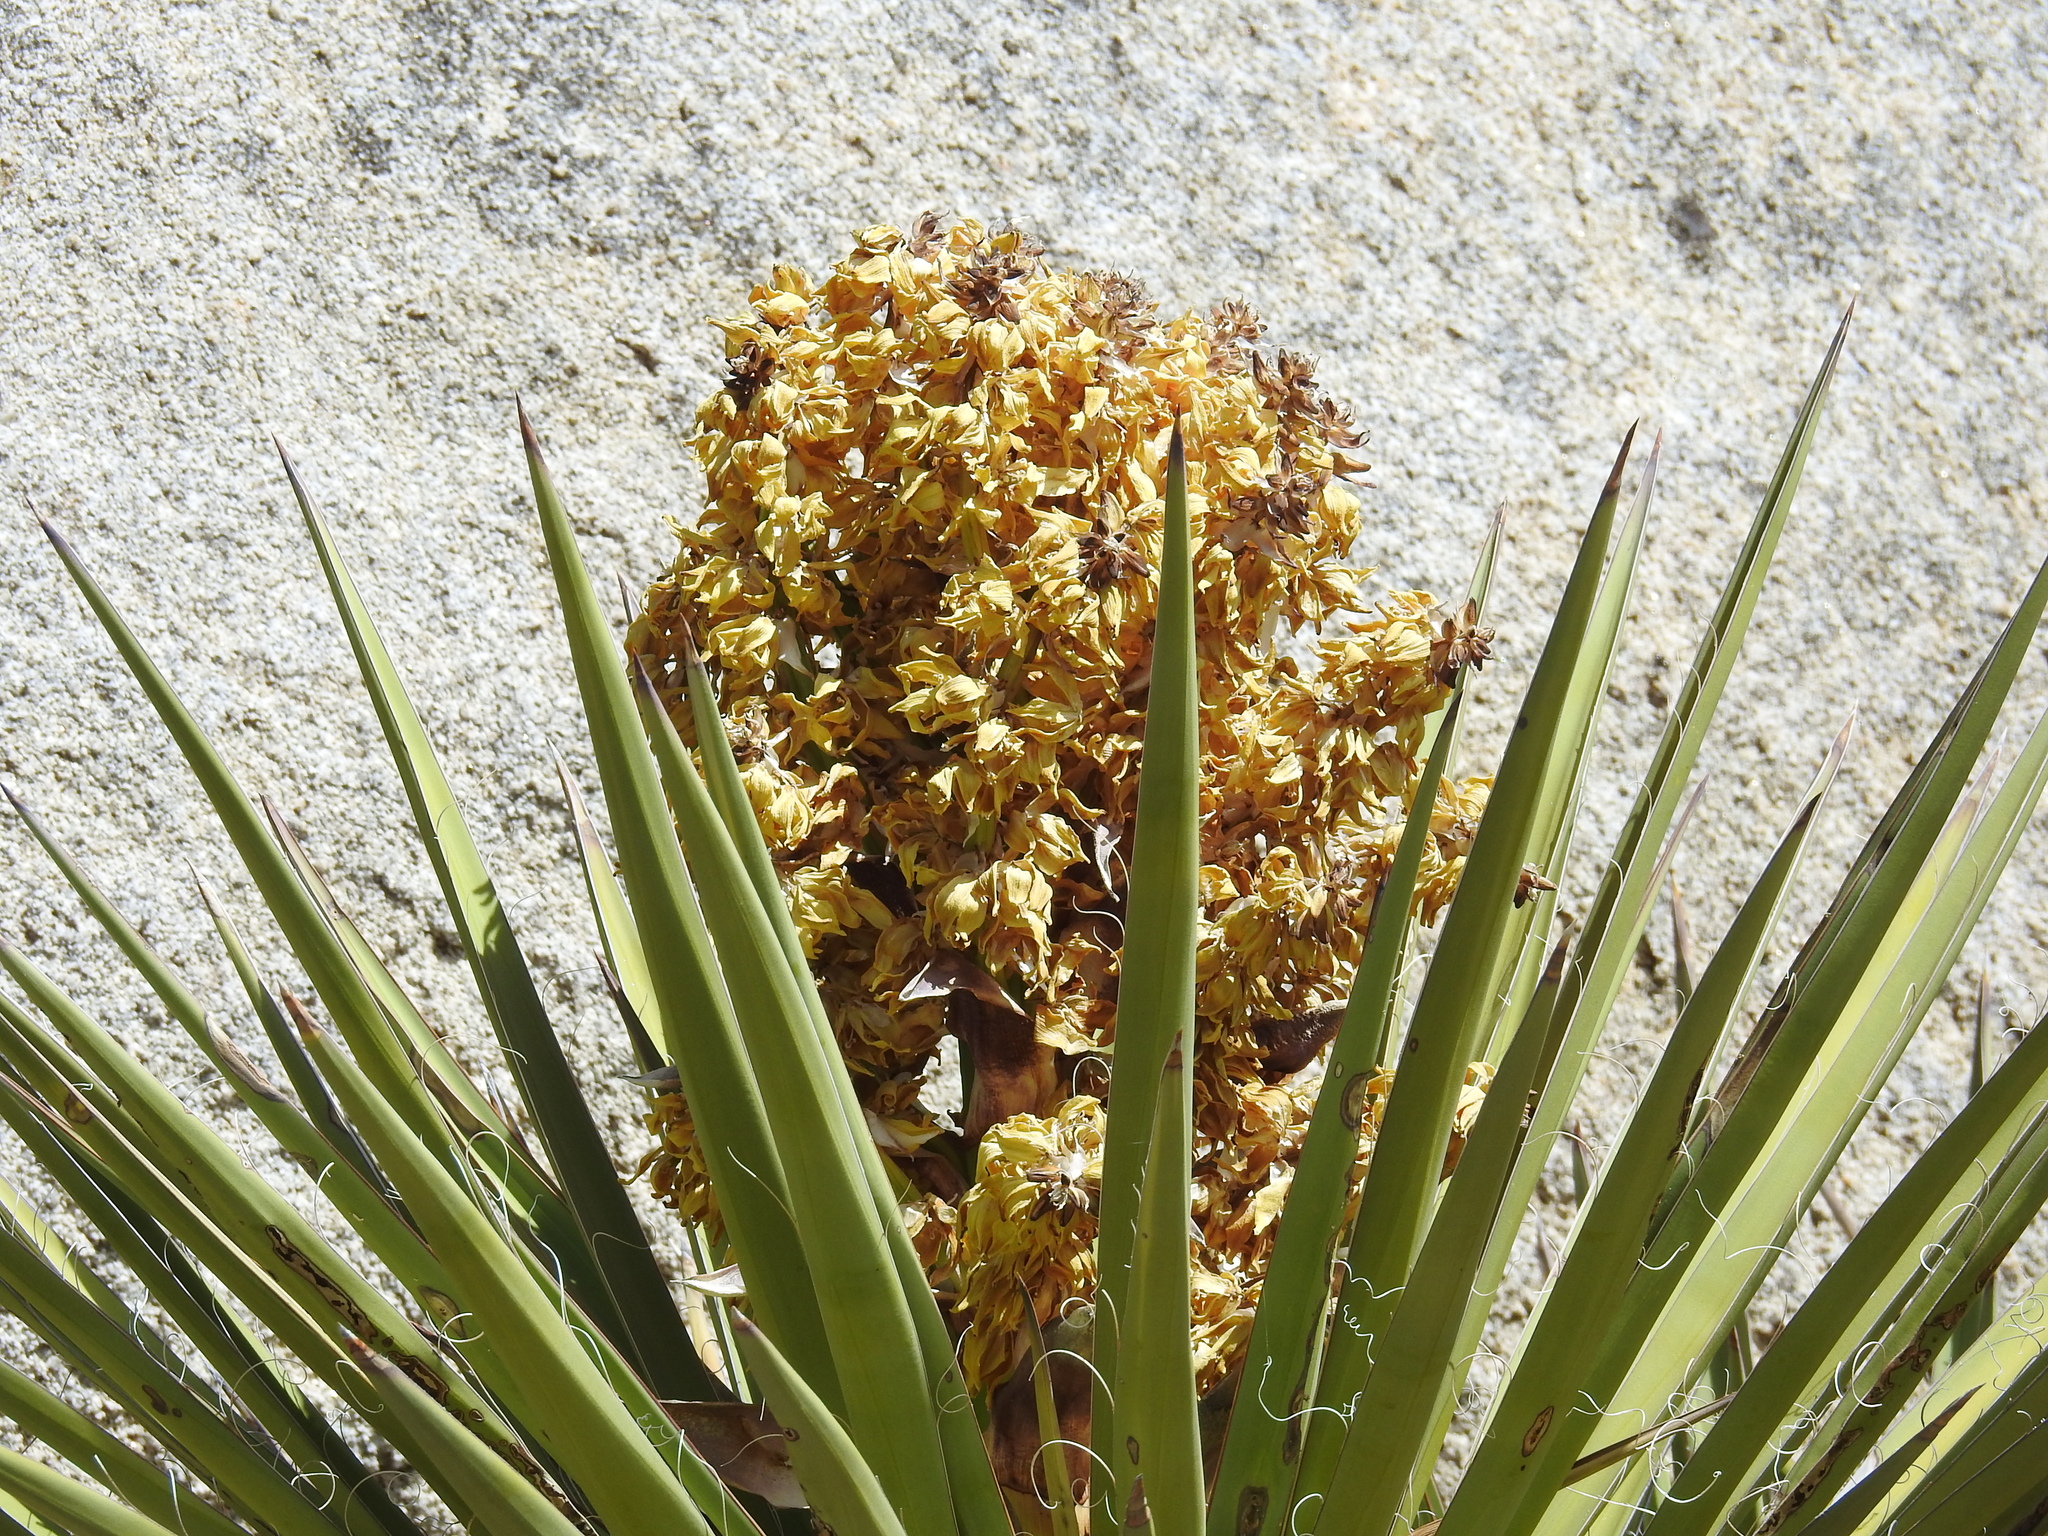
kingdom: Plantae
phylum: Tracheophyta
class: Liliopsida
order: Asparagales
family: Asparagaceae
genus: Yucca
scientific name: Yucca schidigera
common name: Mojave yucca
